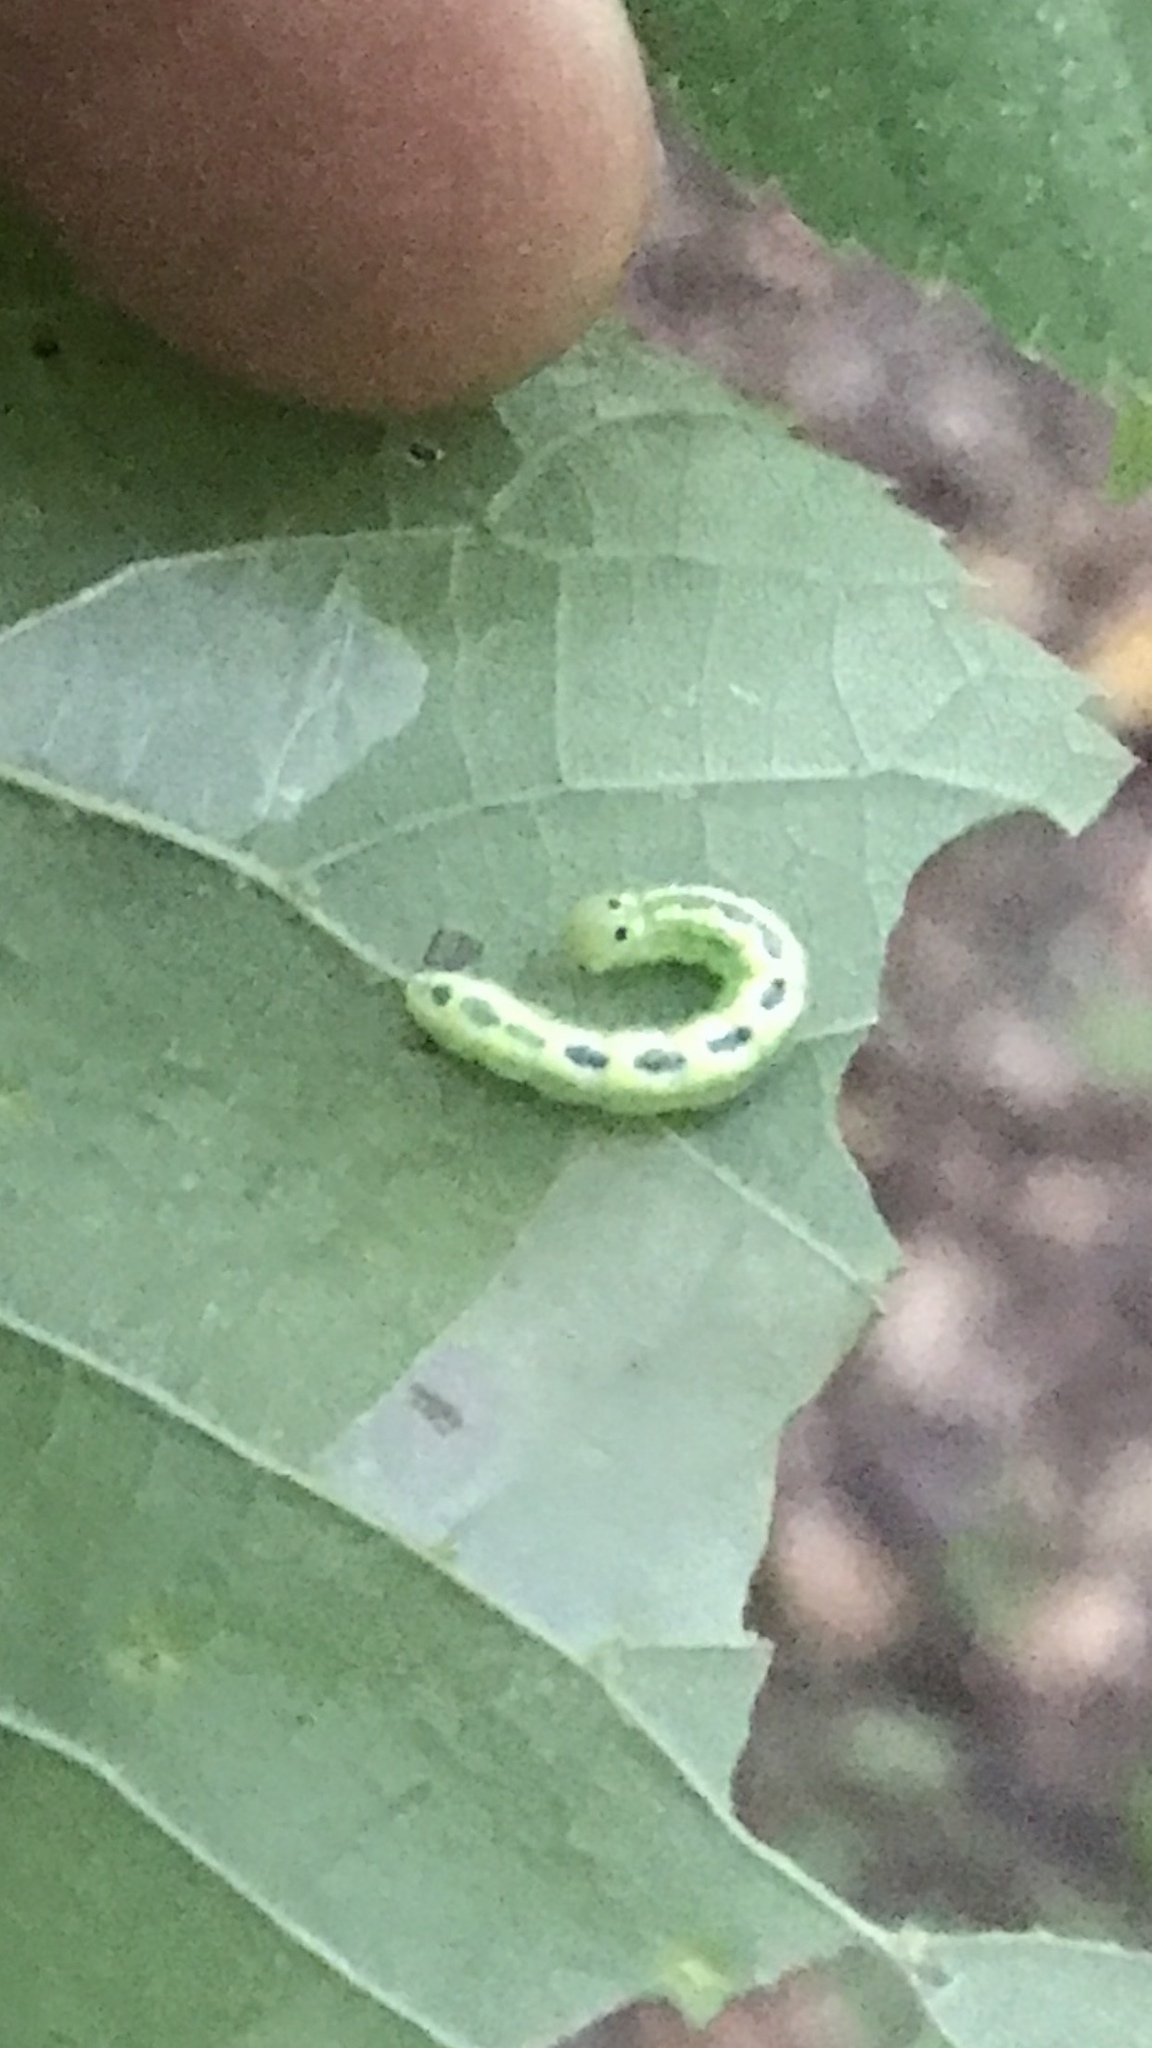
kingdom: Animalia
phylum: Arthropoda
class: Insecta
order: Lepidoptera
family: Notodontidae
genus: Ellida
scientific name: Ellida caniplaga
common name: Linden prominent
